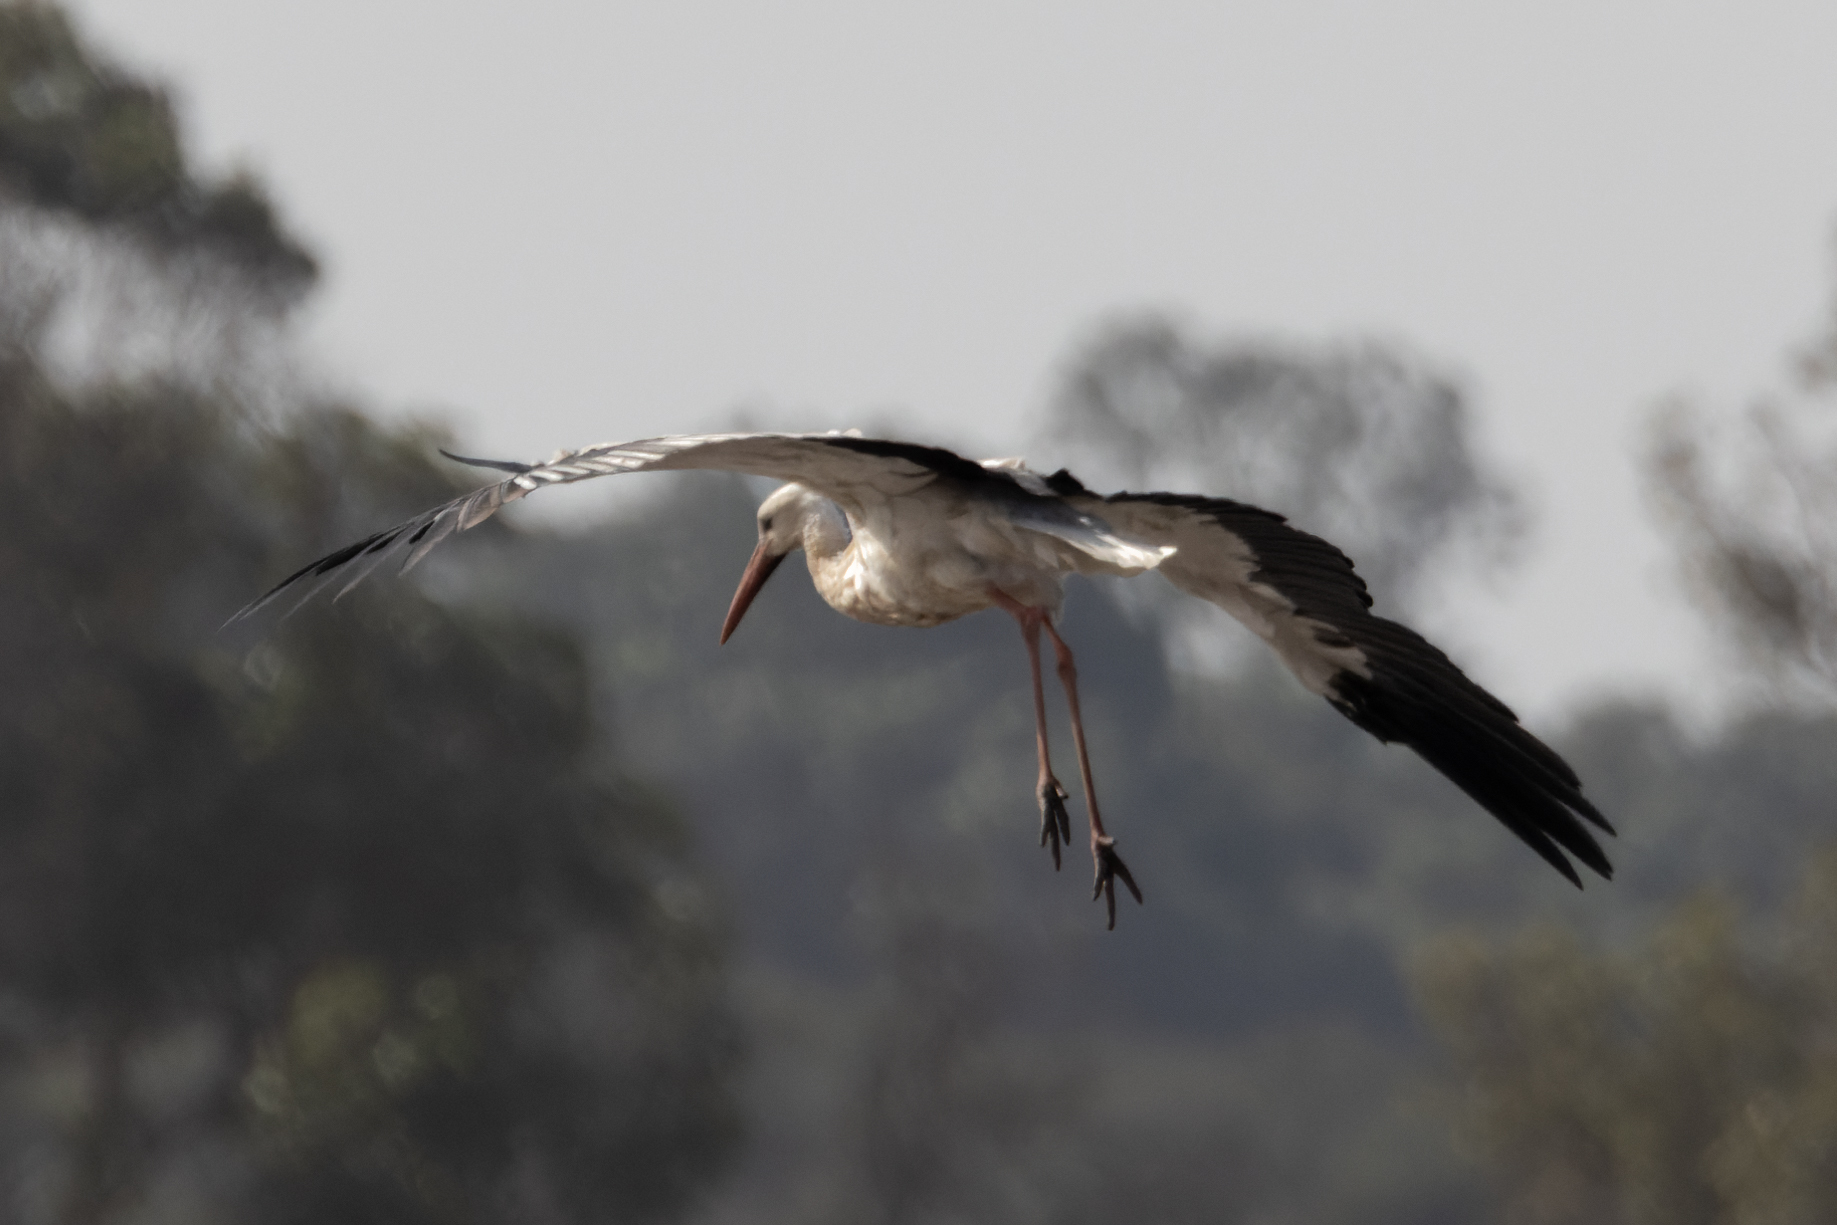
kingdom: Animalia
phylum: Chordata
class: Aves
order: Ciconiiformes
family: Ciconiidae
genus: Ciconia
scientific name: Ciconia ciconia
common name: White stork
